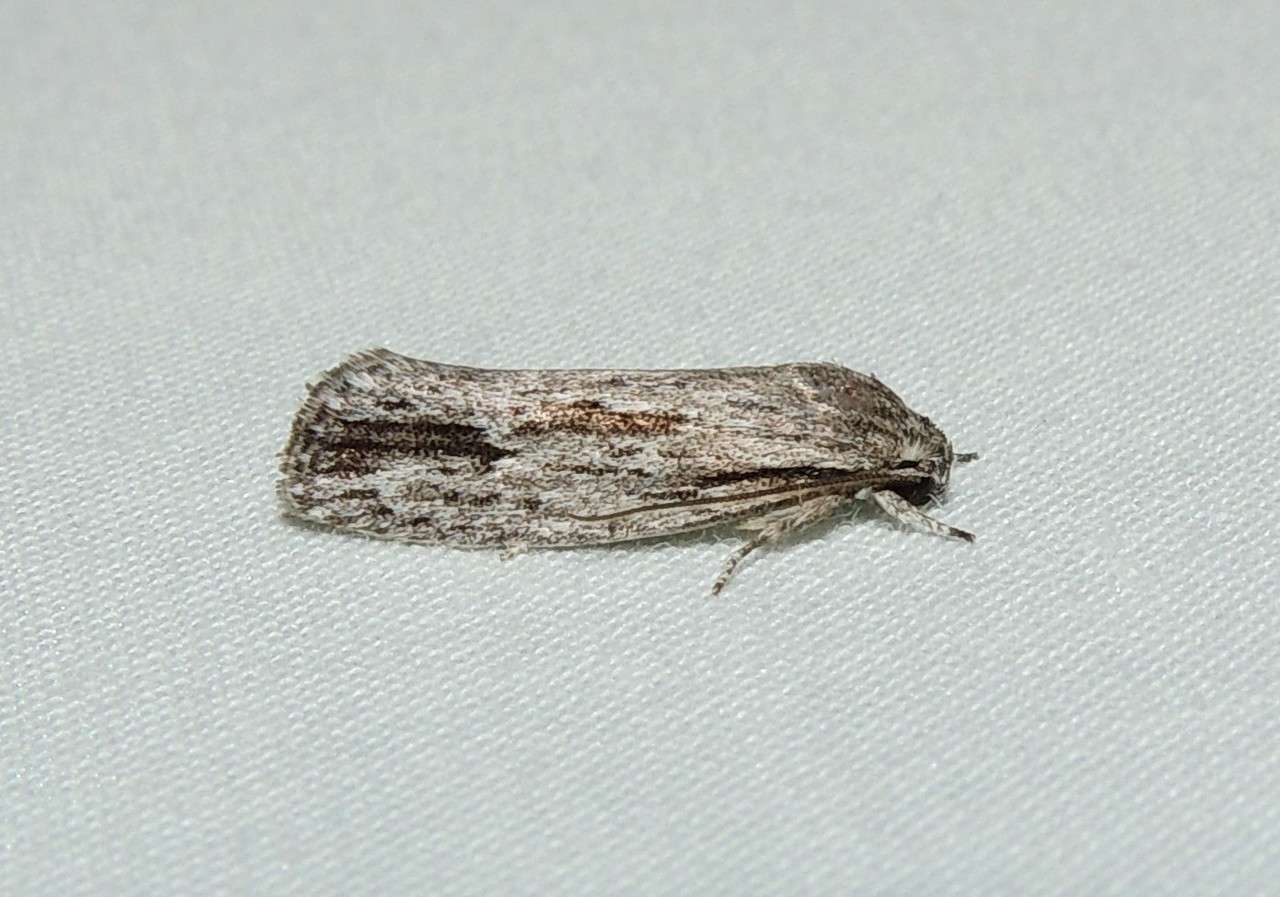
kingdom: Animalia
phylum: Arthropoda
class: Insecta
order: Lepidoptera
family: Depressariidae
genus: Agriophara
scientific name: Agriophara gravis
